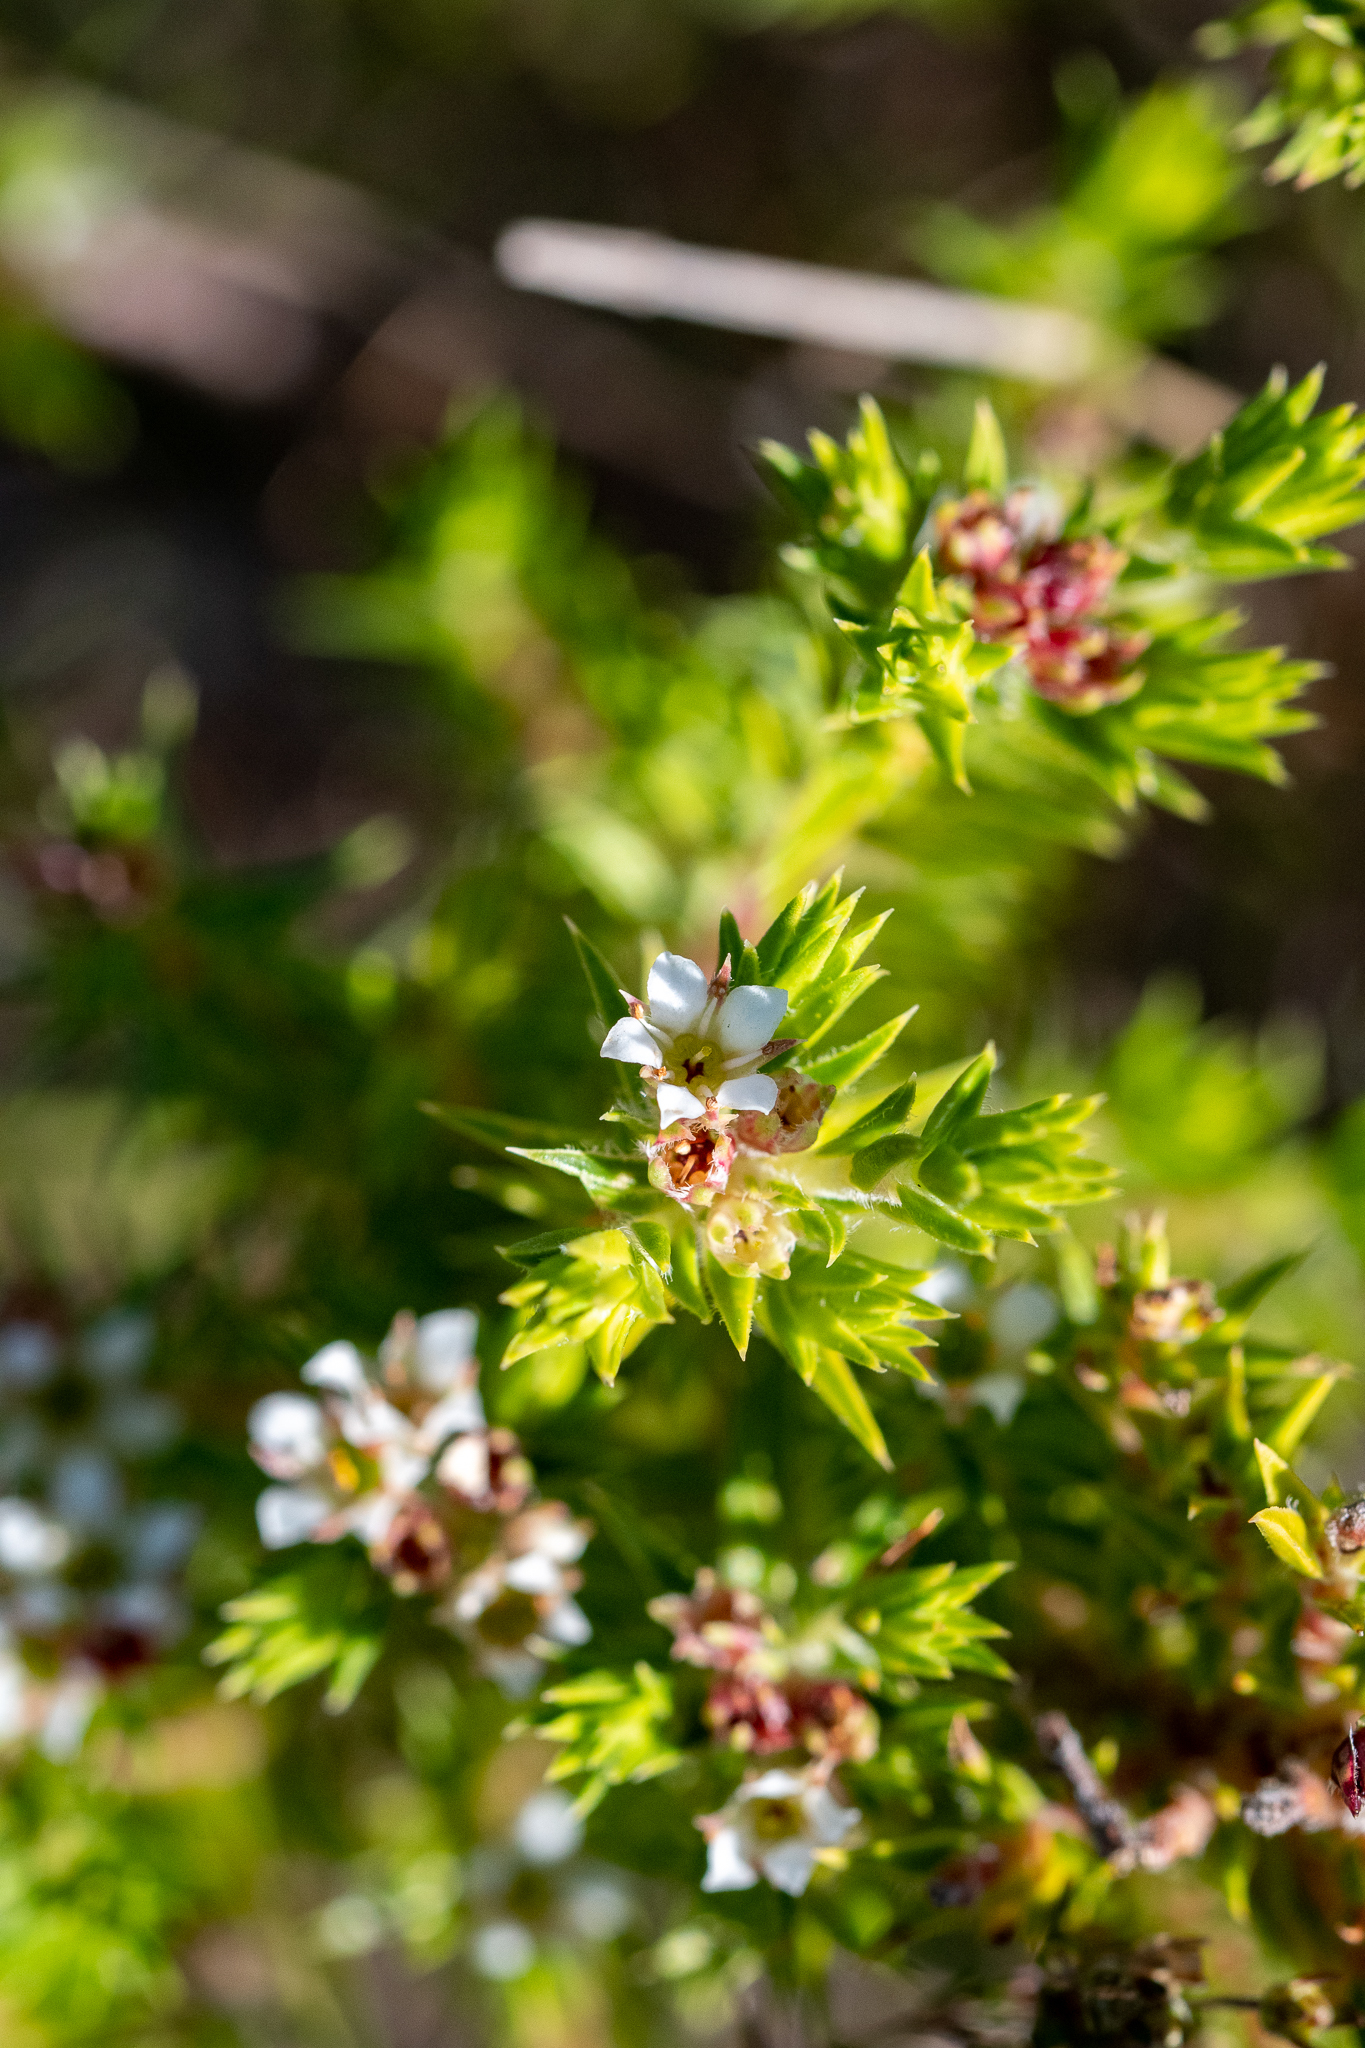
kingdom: Plantae
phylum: Tracheophyta
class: Magnoliopsida
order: Sapindales
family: Rutaceae
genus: Diosma
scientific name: Diosma oppositifolia
